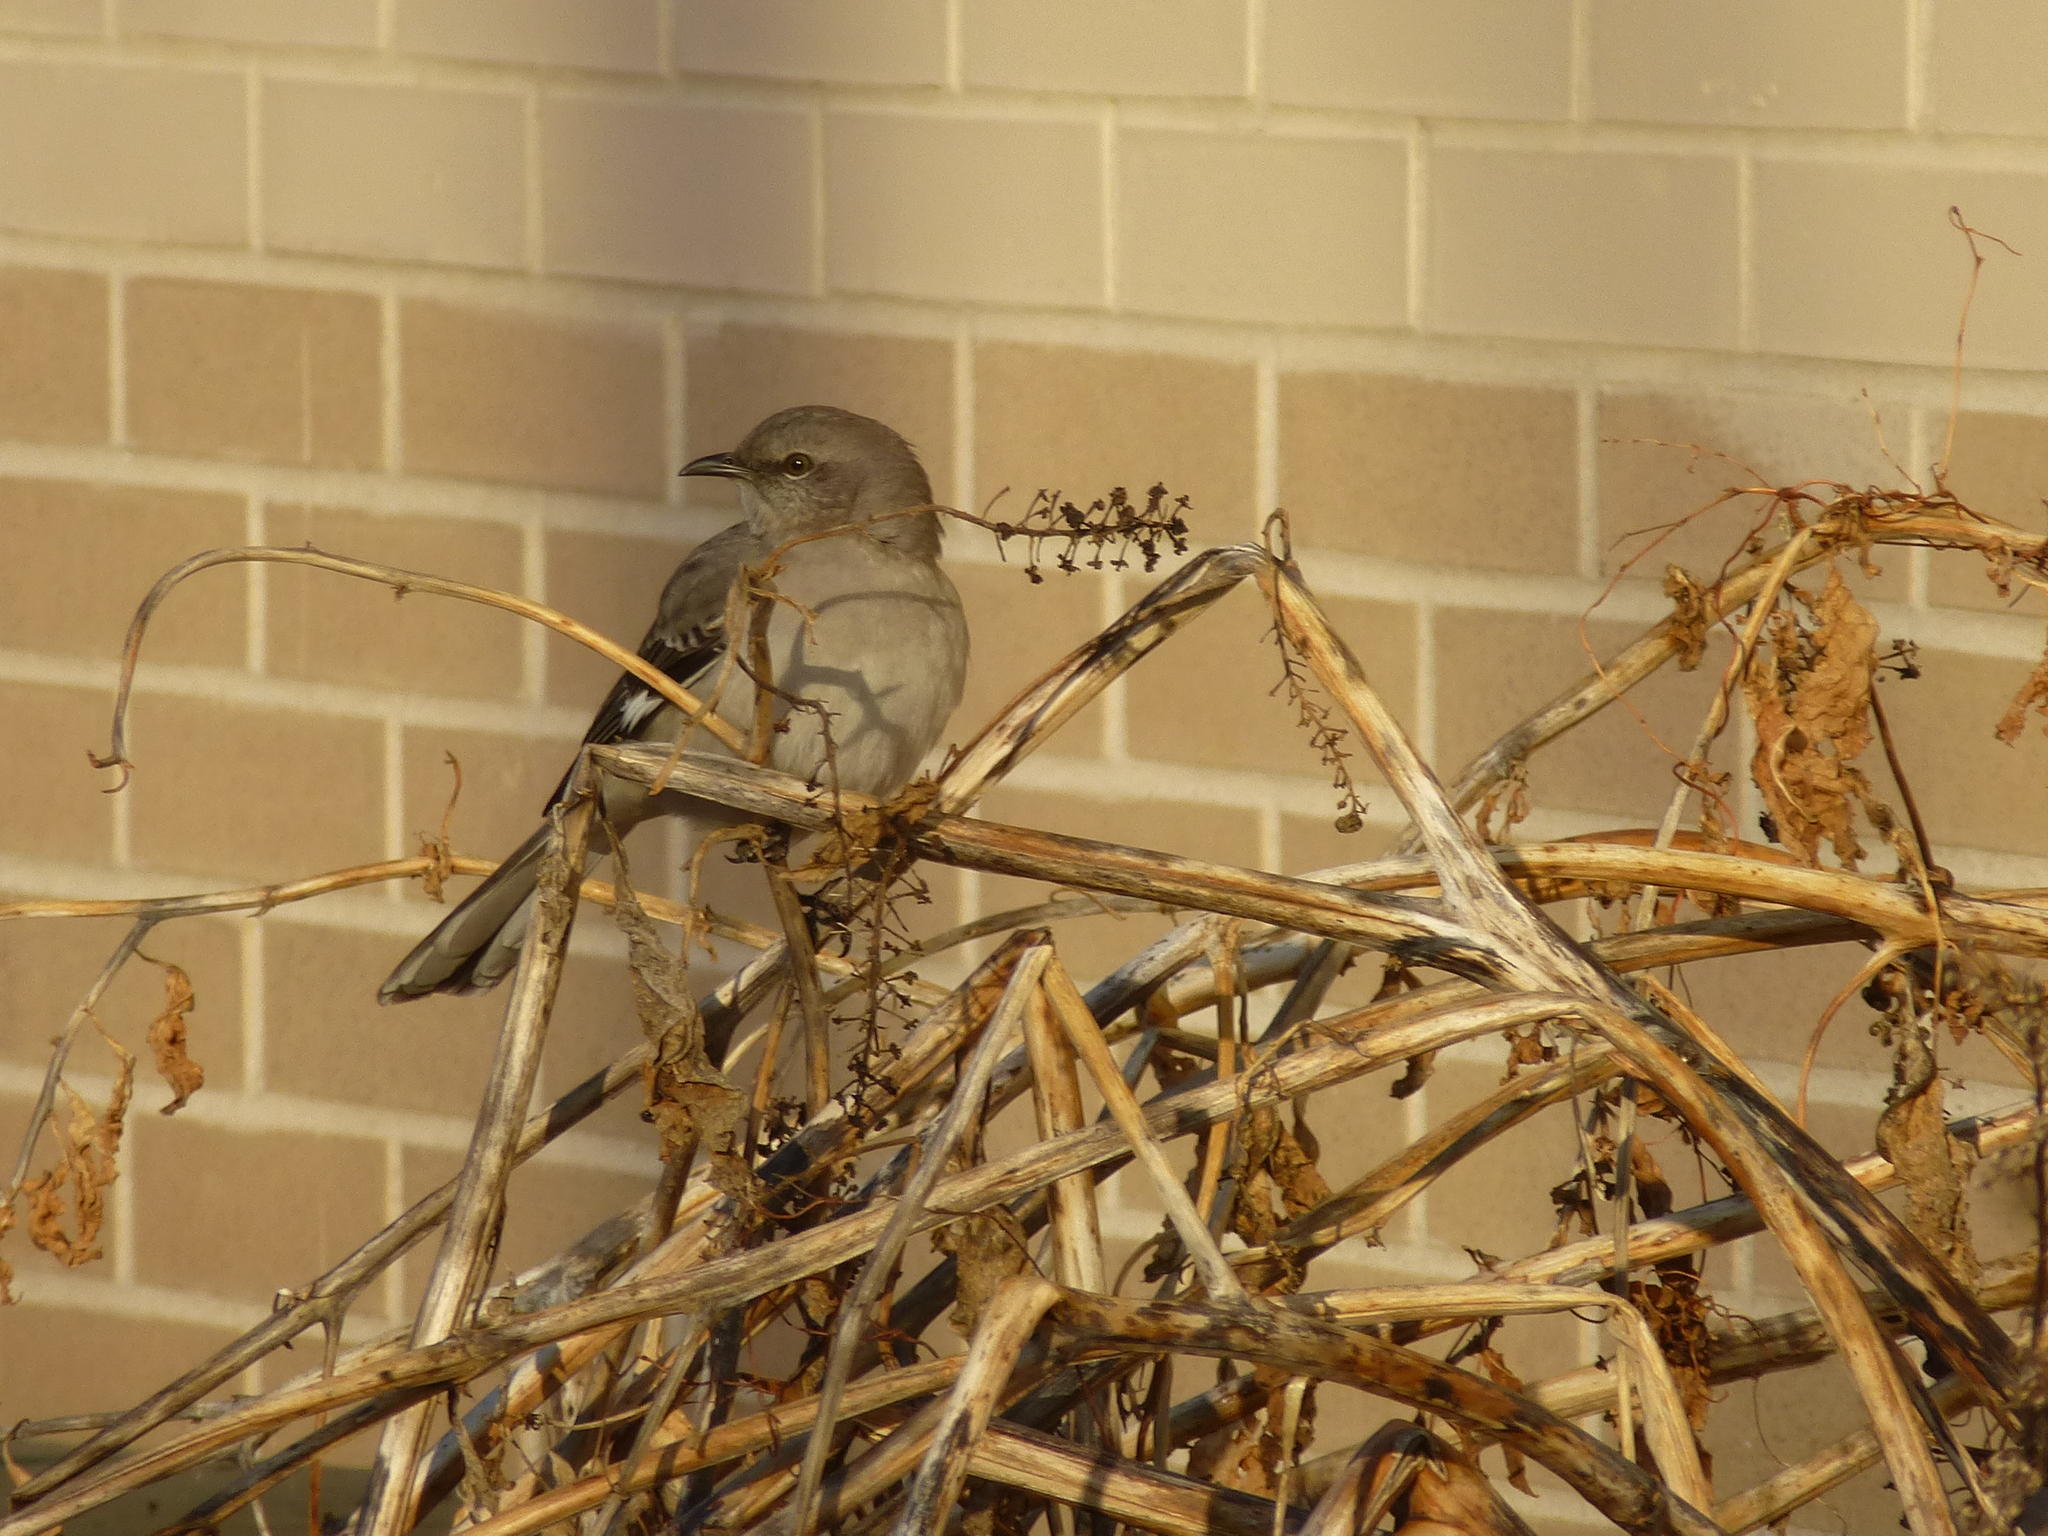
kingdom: Animalia
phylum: Chordata
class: Aves
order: Passeriformes
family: Mimidae
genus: Mimus
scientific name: Mimus polyglottos
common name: Northern mockingbird
